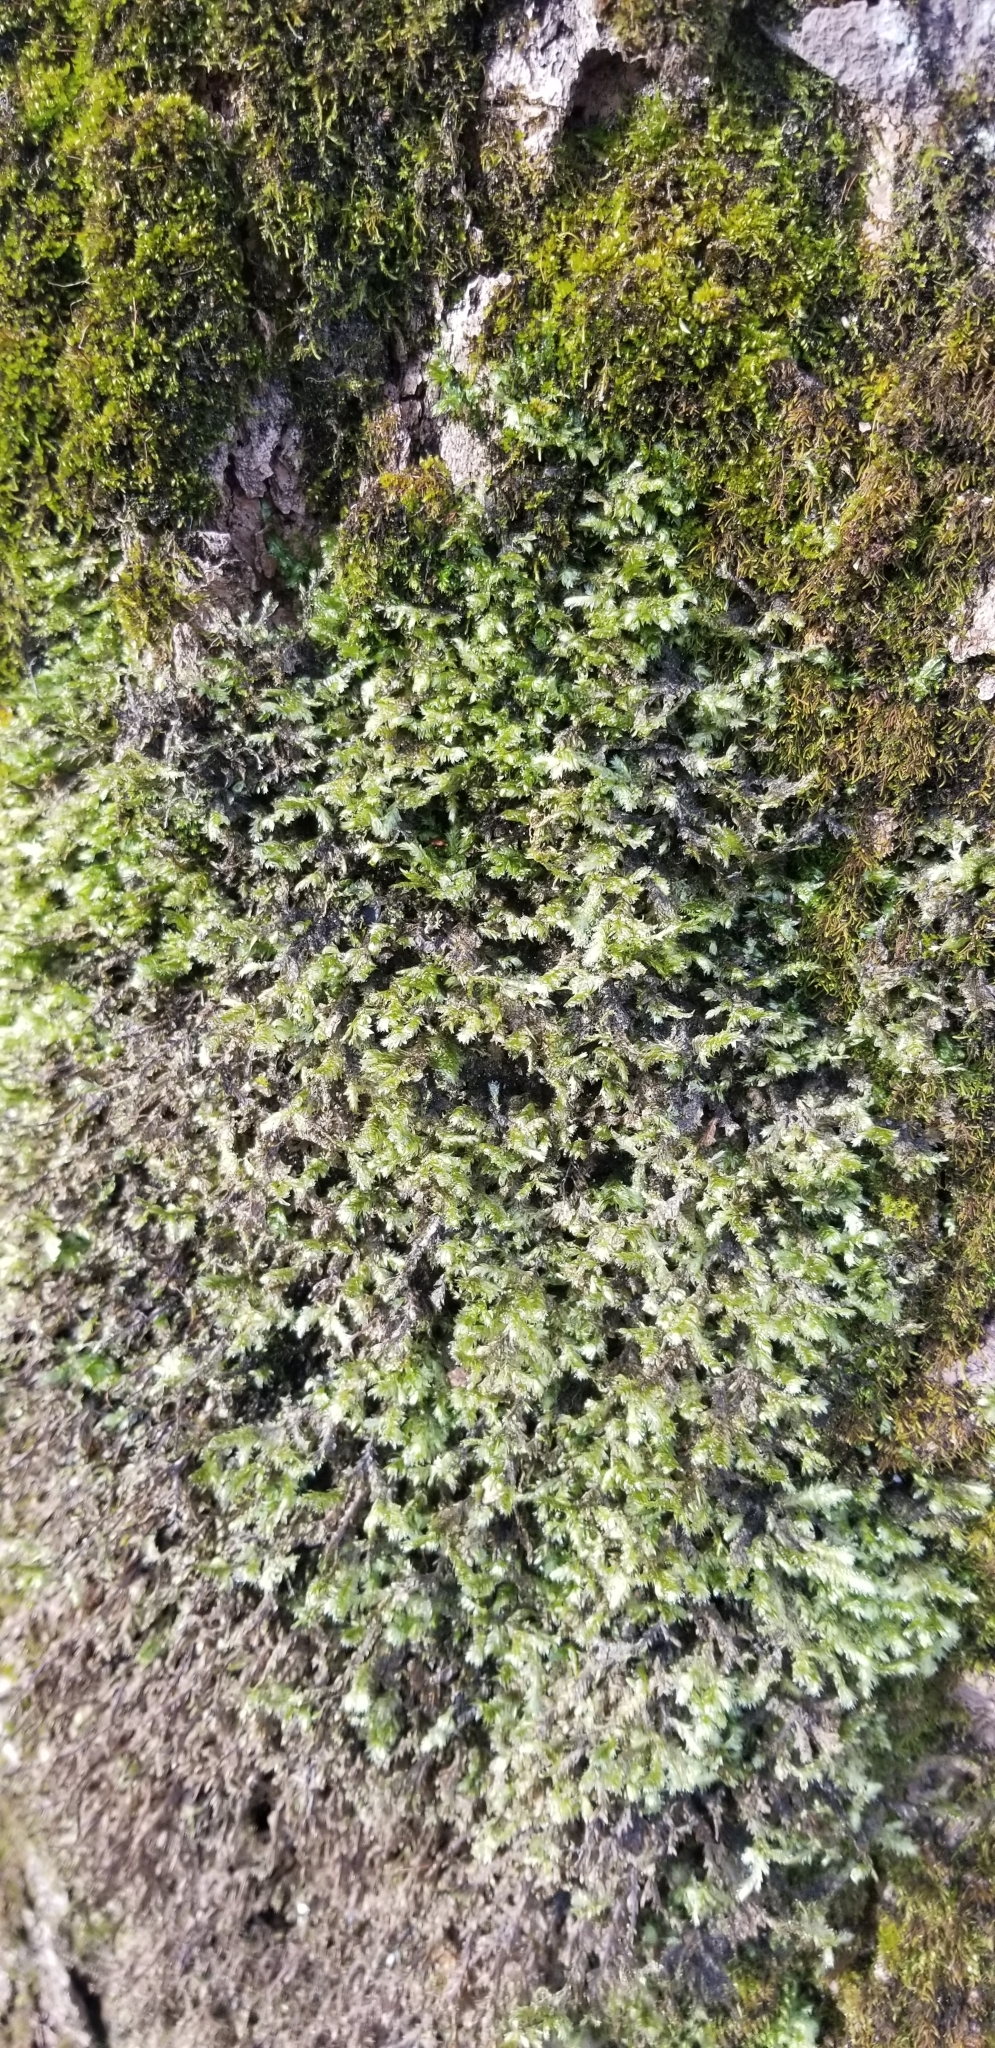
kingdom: Plantae
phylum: Bryophyta
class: Bryopsida
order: Hypnales
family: Neckeraceae
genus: Neckera
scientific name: Neckera pennata
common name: Feathery neckera
